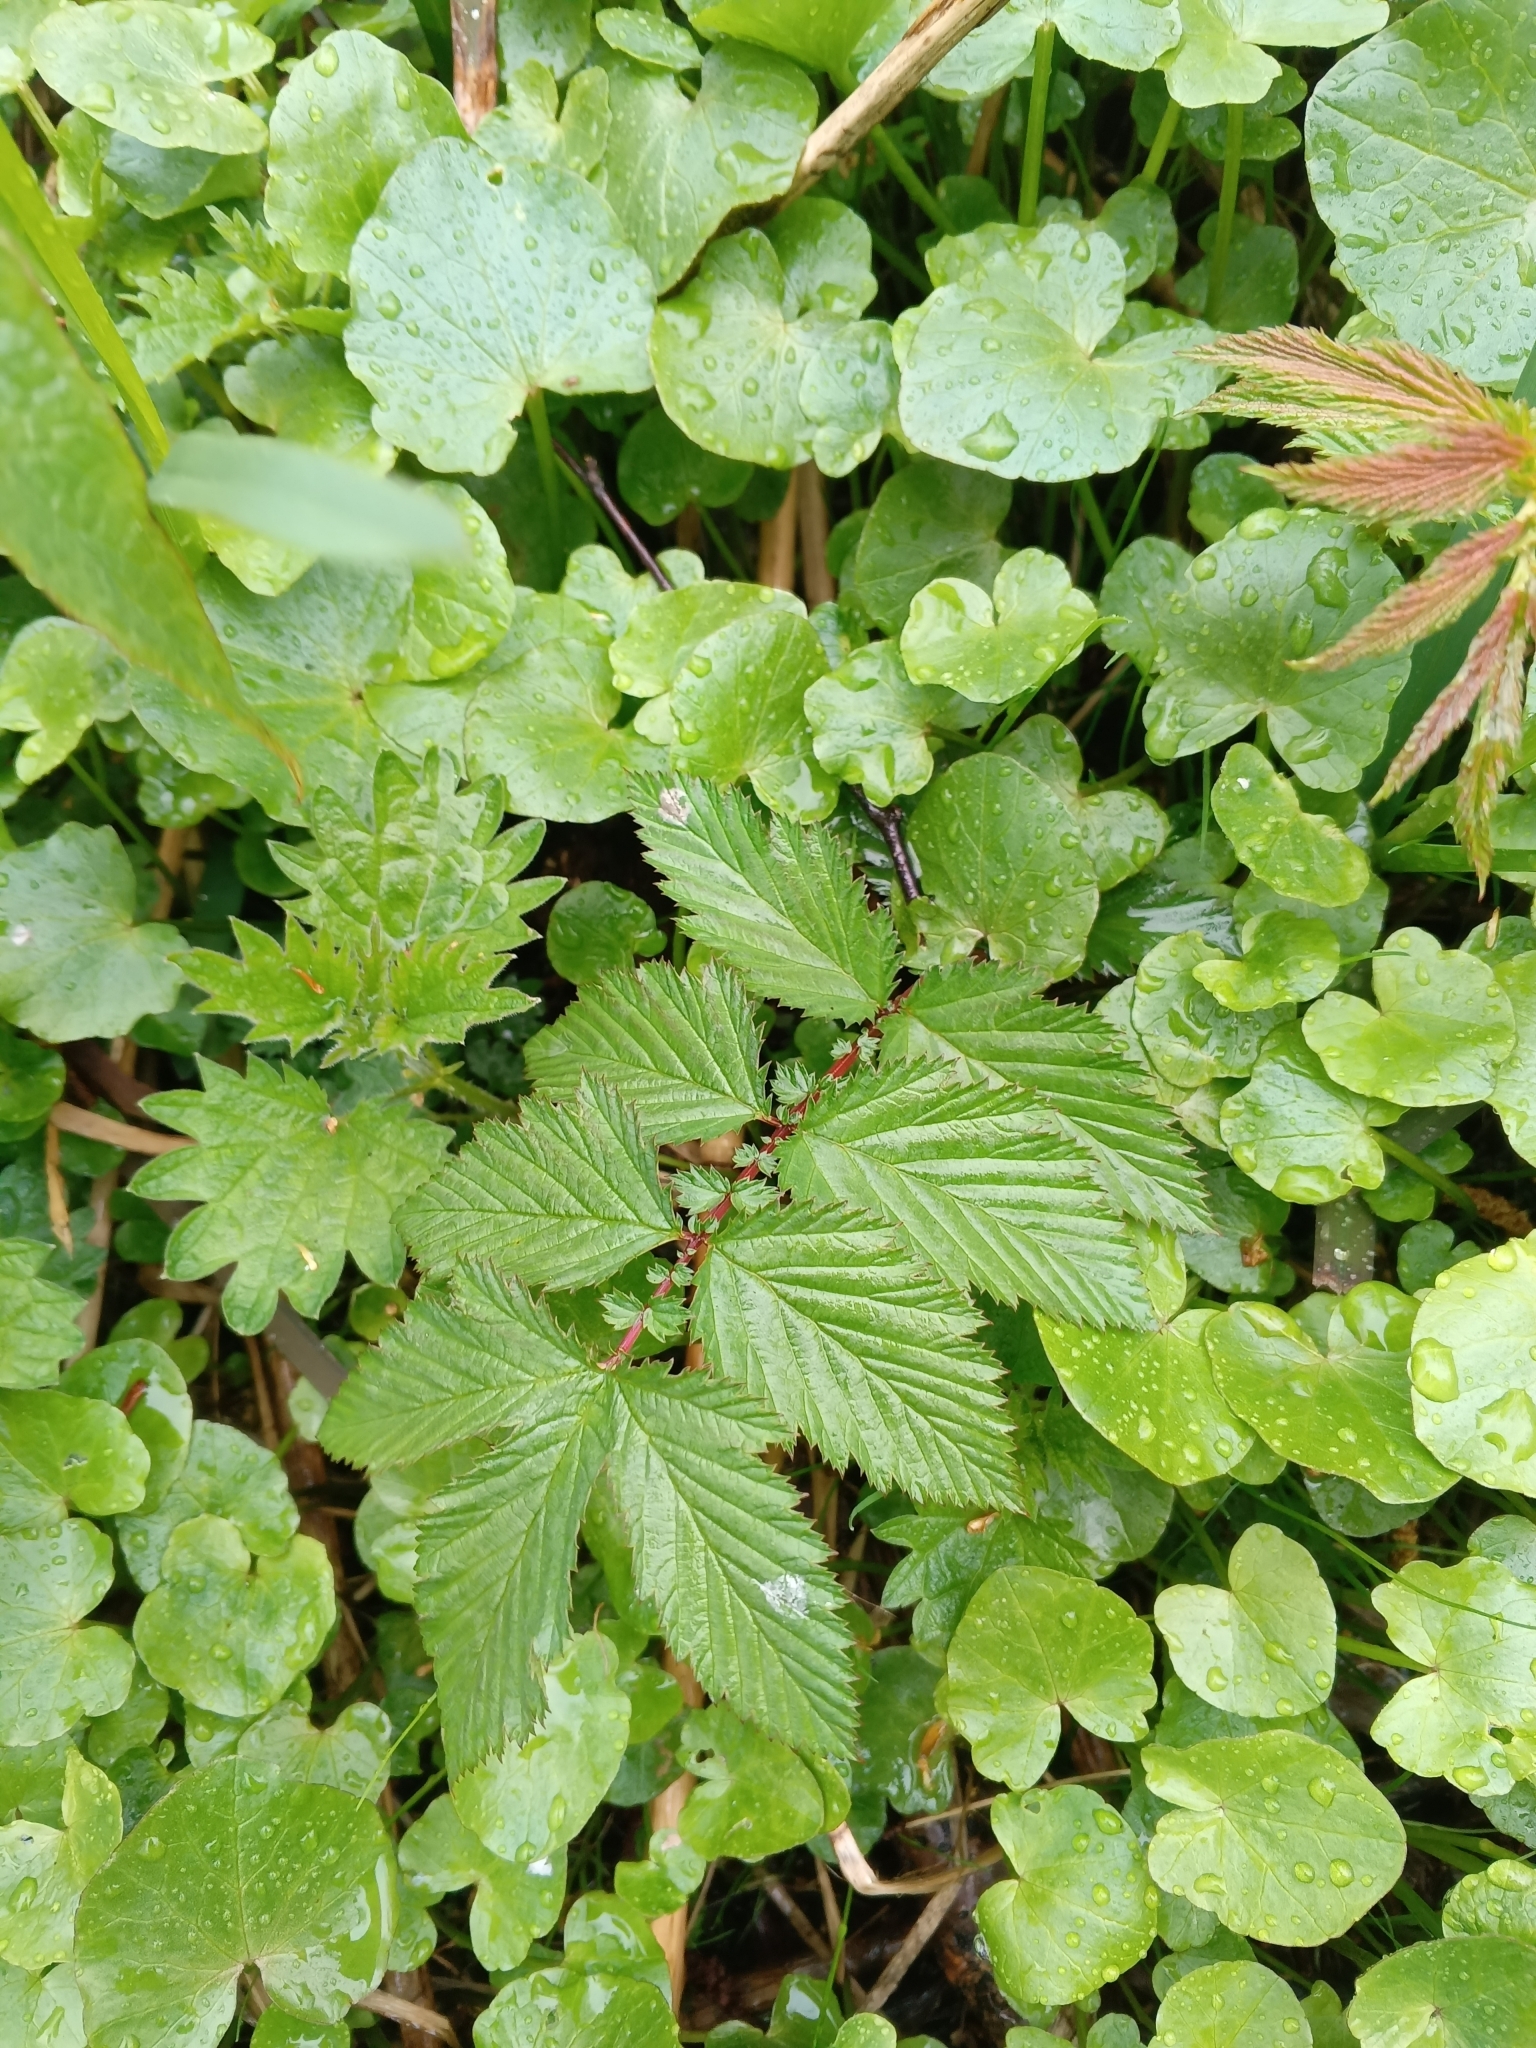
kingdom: Plantae
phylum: Tracheophyta
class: Magnoliopsida
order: Rosales
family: Rosaceae
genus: Filipendula
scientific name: Filipendula ulmaria
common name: Meadowsweet
